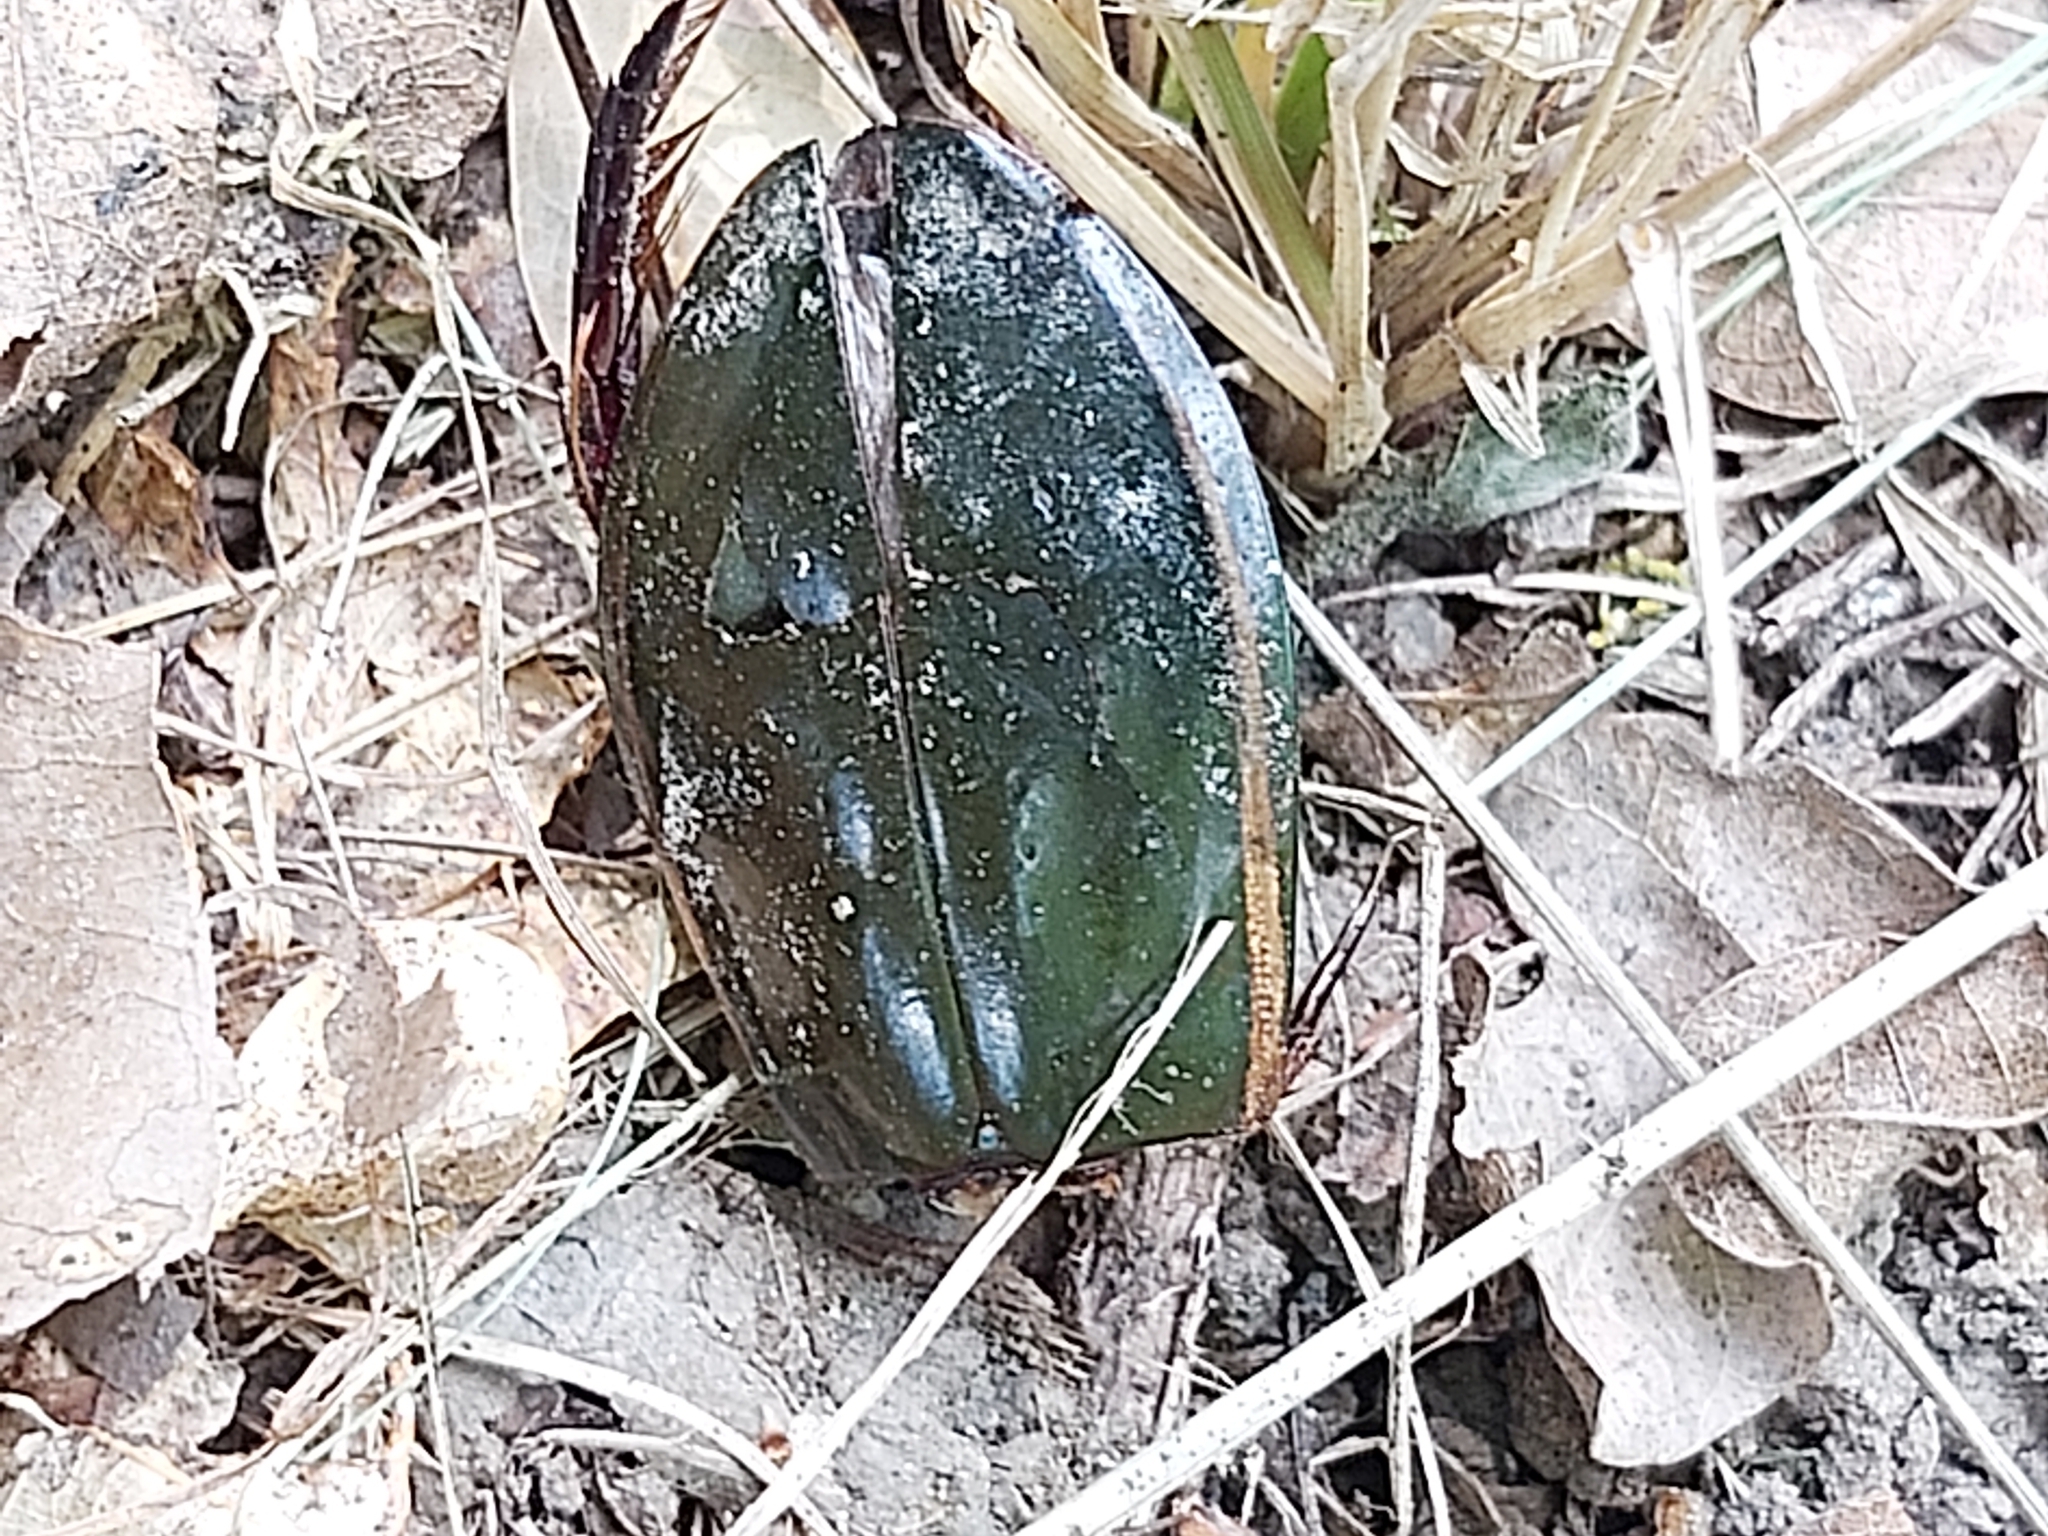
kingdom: Animalia
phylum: Arthropoda
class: Insecta
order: Coleoptera
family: Dytiscidae
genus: Cybister
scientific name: Cybister lateralimarginalis
